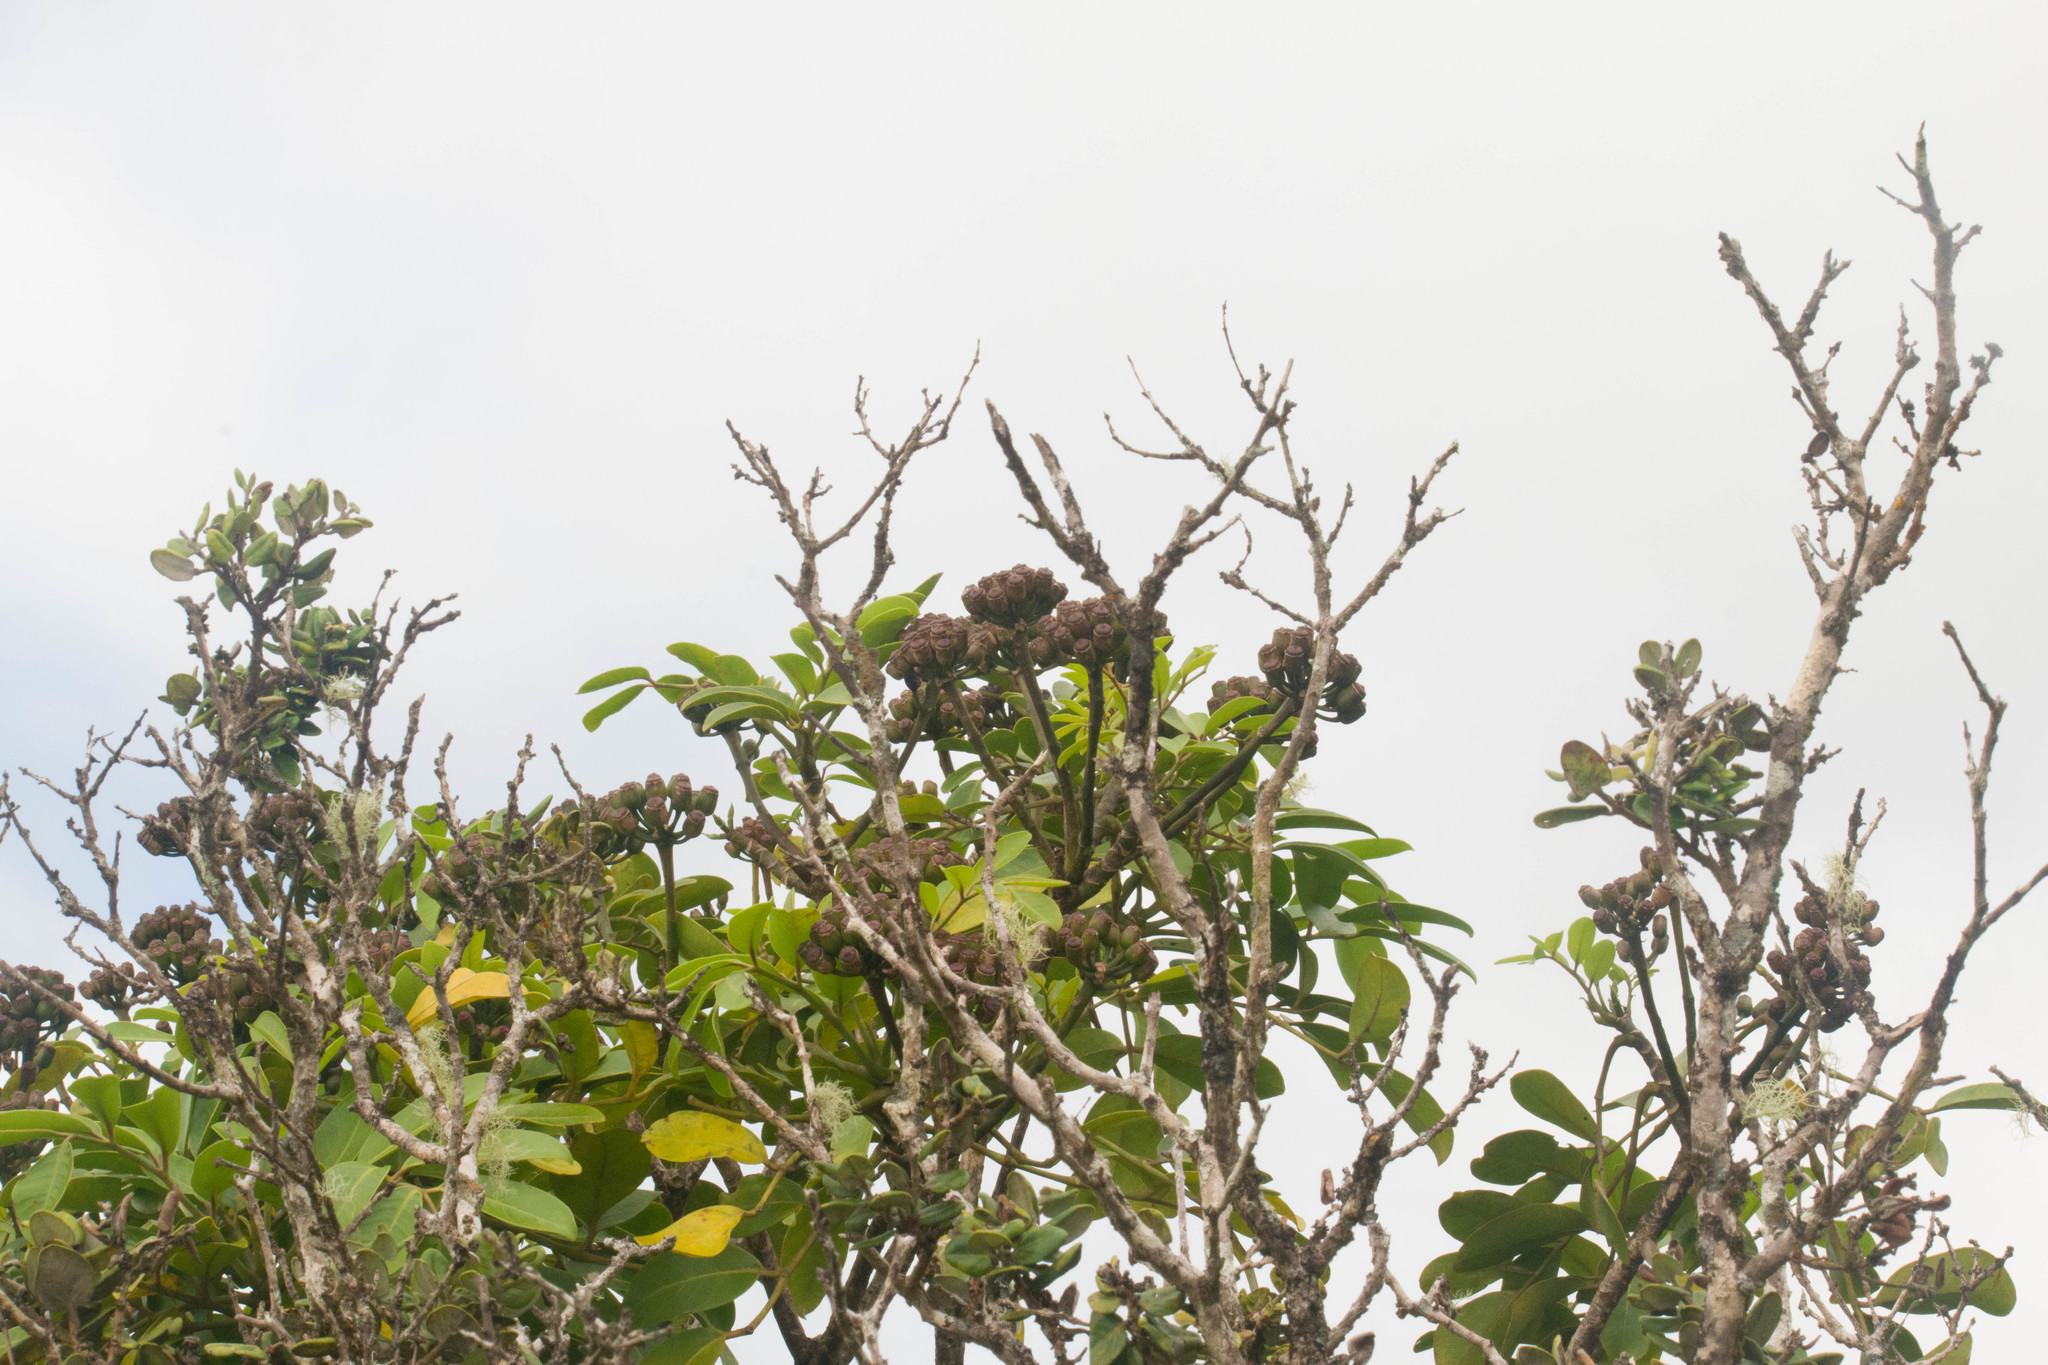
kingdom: Plantae
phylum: Tracheophyta
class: Magnoliopsida
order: Apiales
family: Araliaceae
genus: Polyscias
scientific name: Polyscias oahuensis
